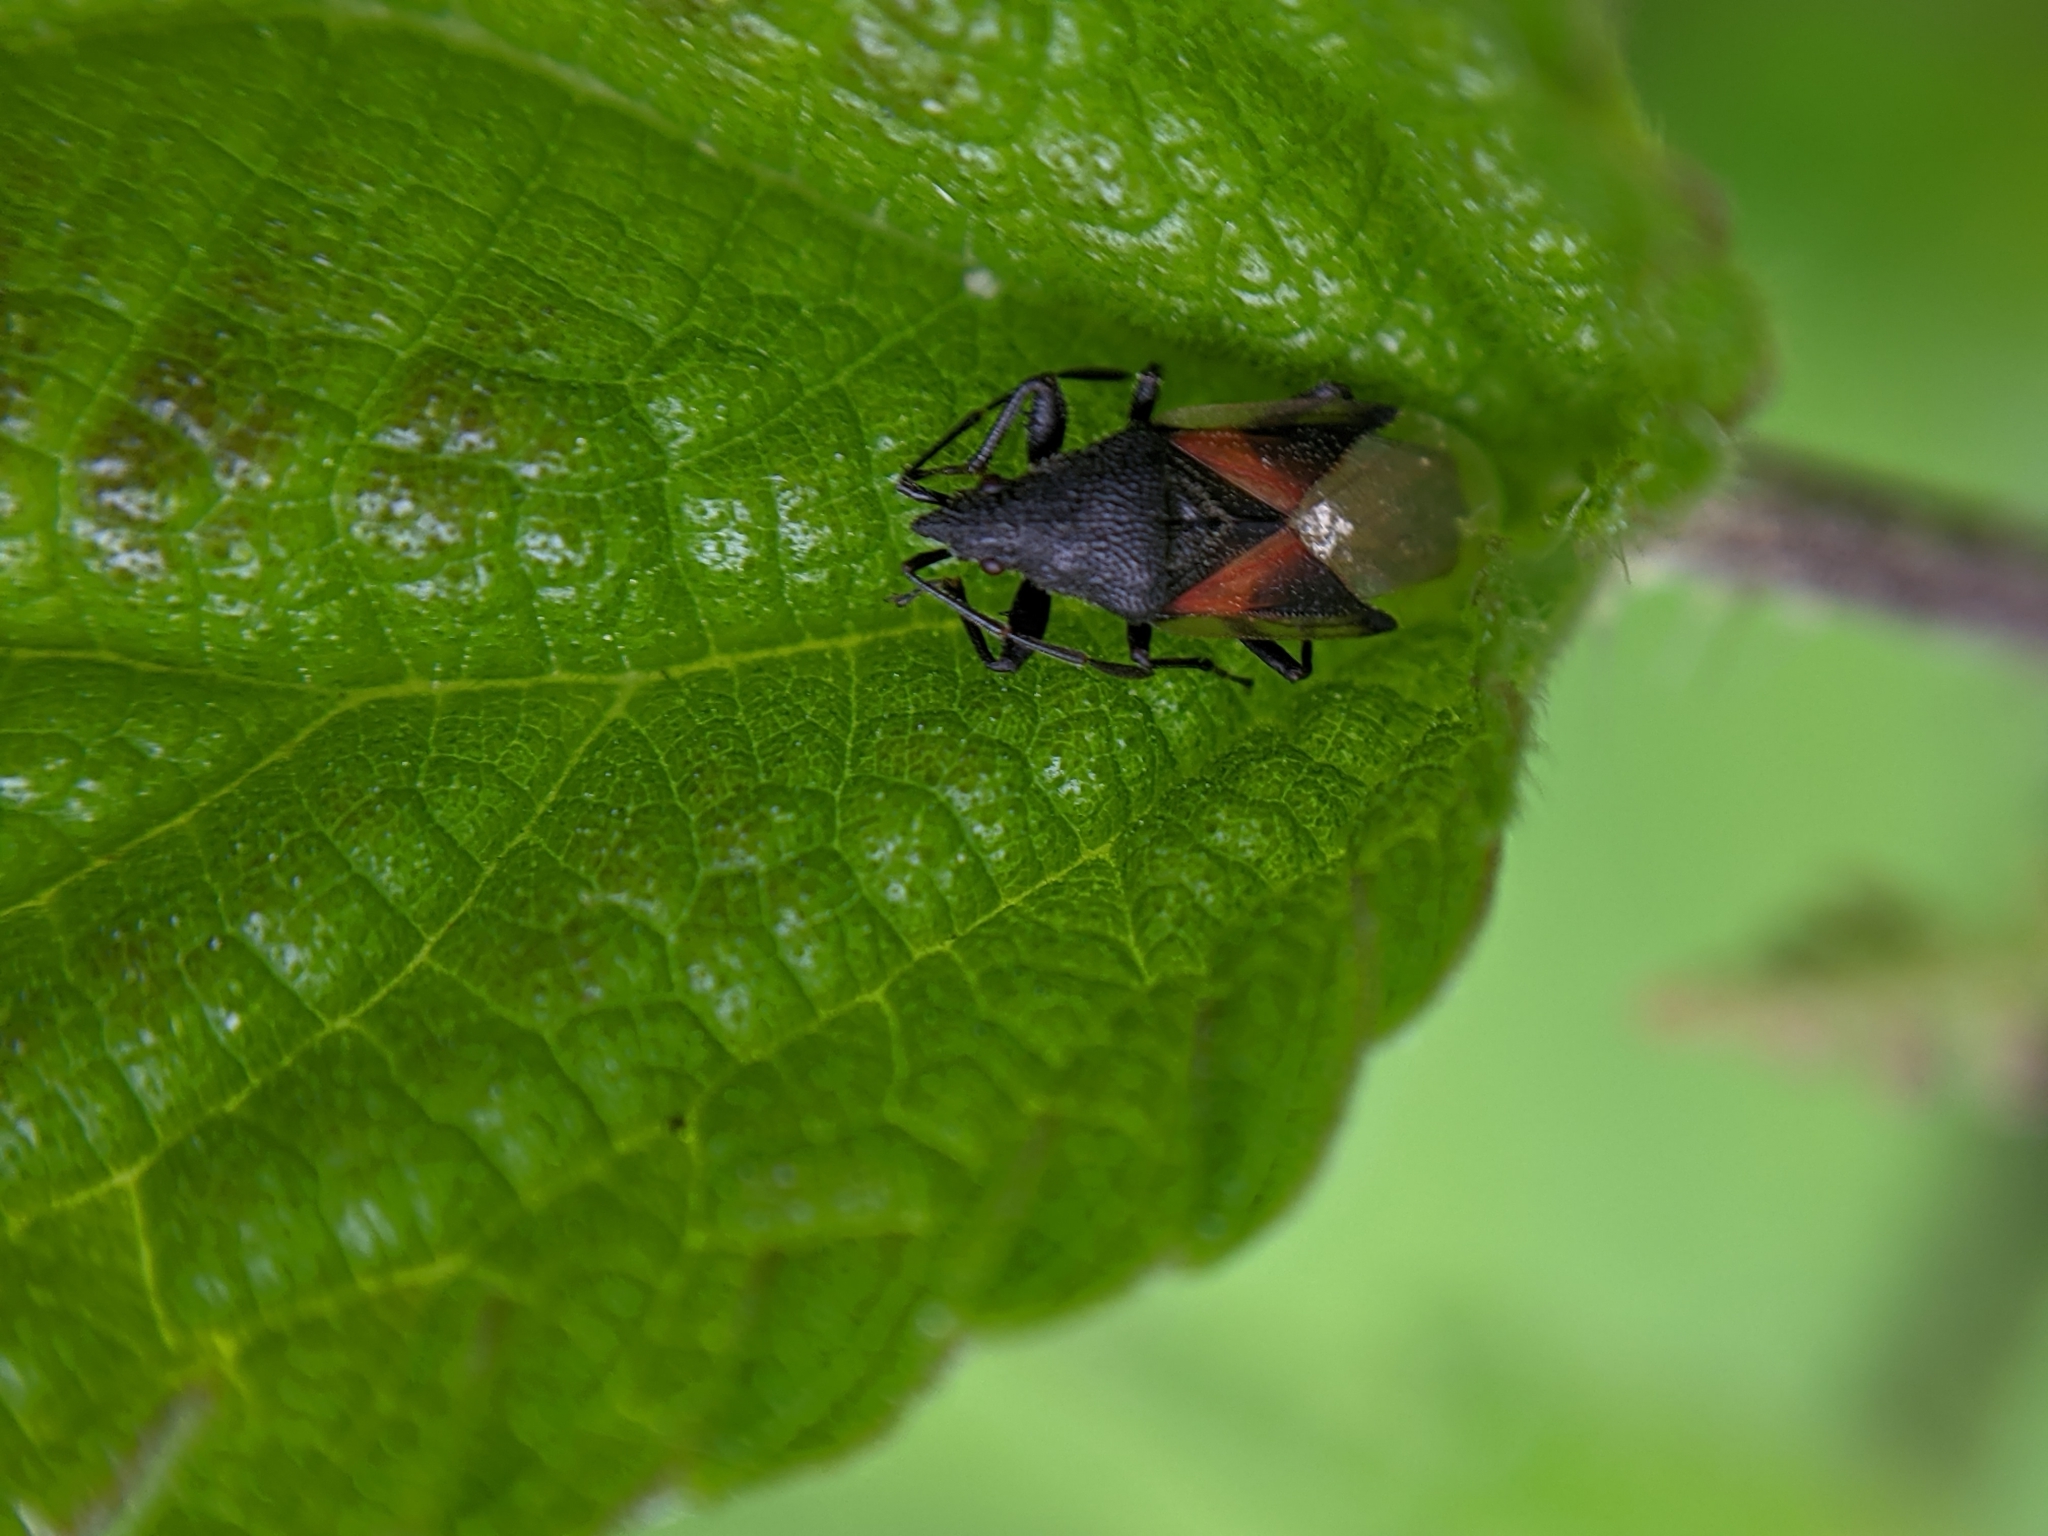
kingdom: Animalia
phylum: Arthropoda
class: Insecta
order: Hemiptera
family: Oxycarenidae
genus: Oxycarenus
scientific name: Oxycarenus lavaterae
